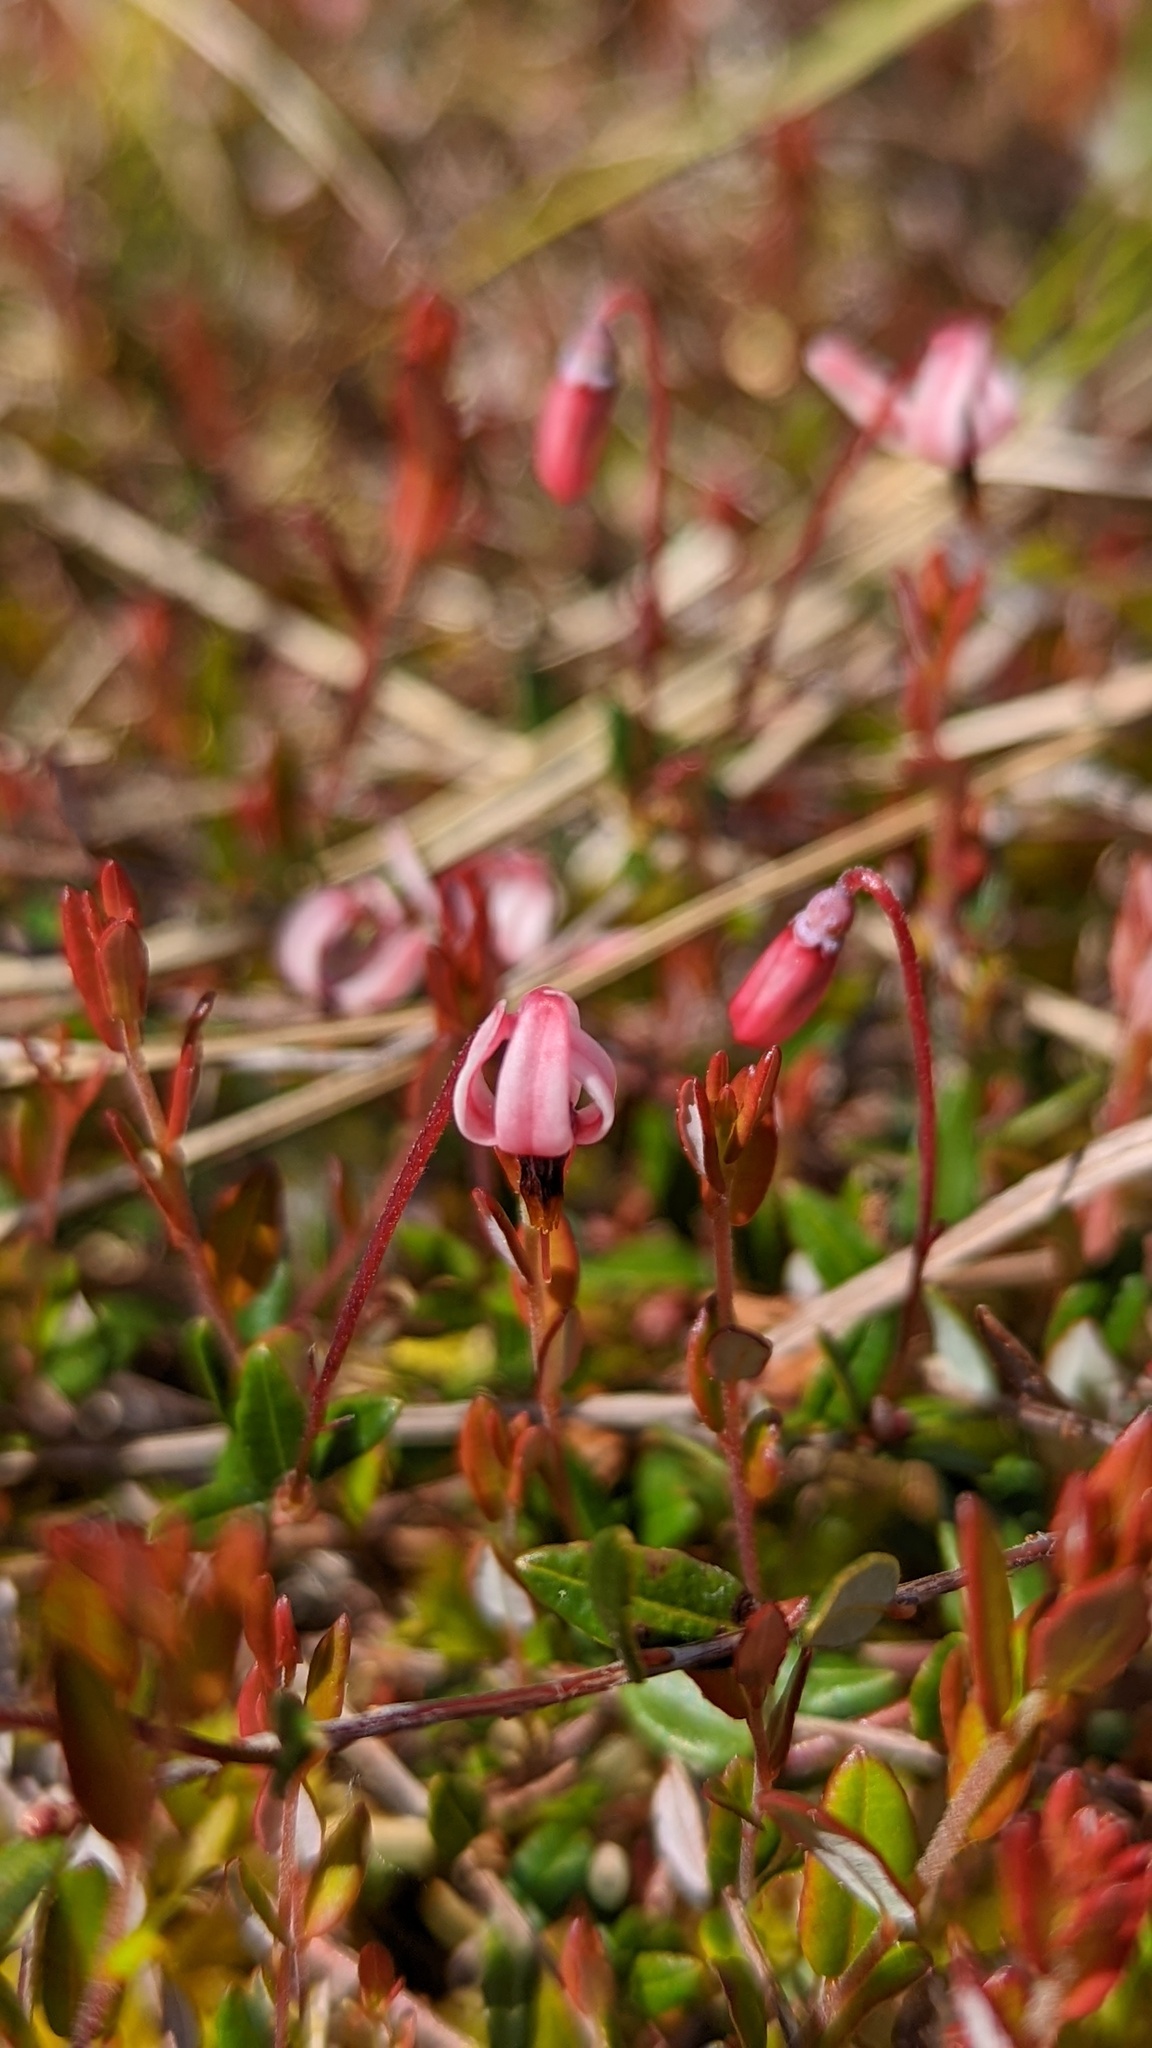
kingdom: Plantae
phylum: Tracheophyta
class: Magnoliopsida
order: Ericales
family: Ericaceae
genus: Vaccinium
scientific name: Vaccinium oxycoccos
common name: Cranberry
